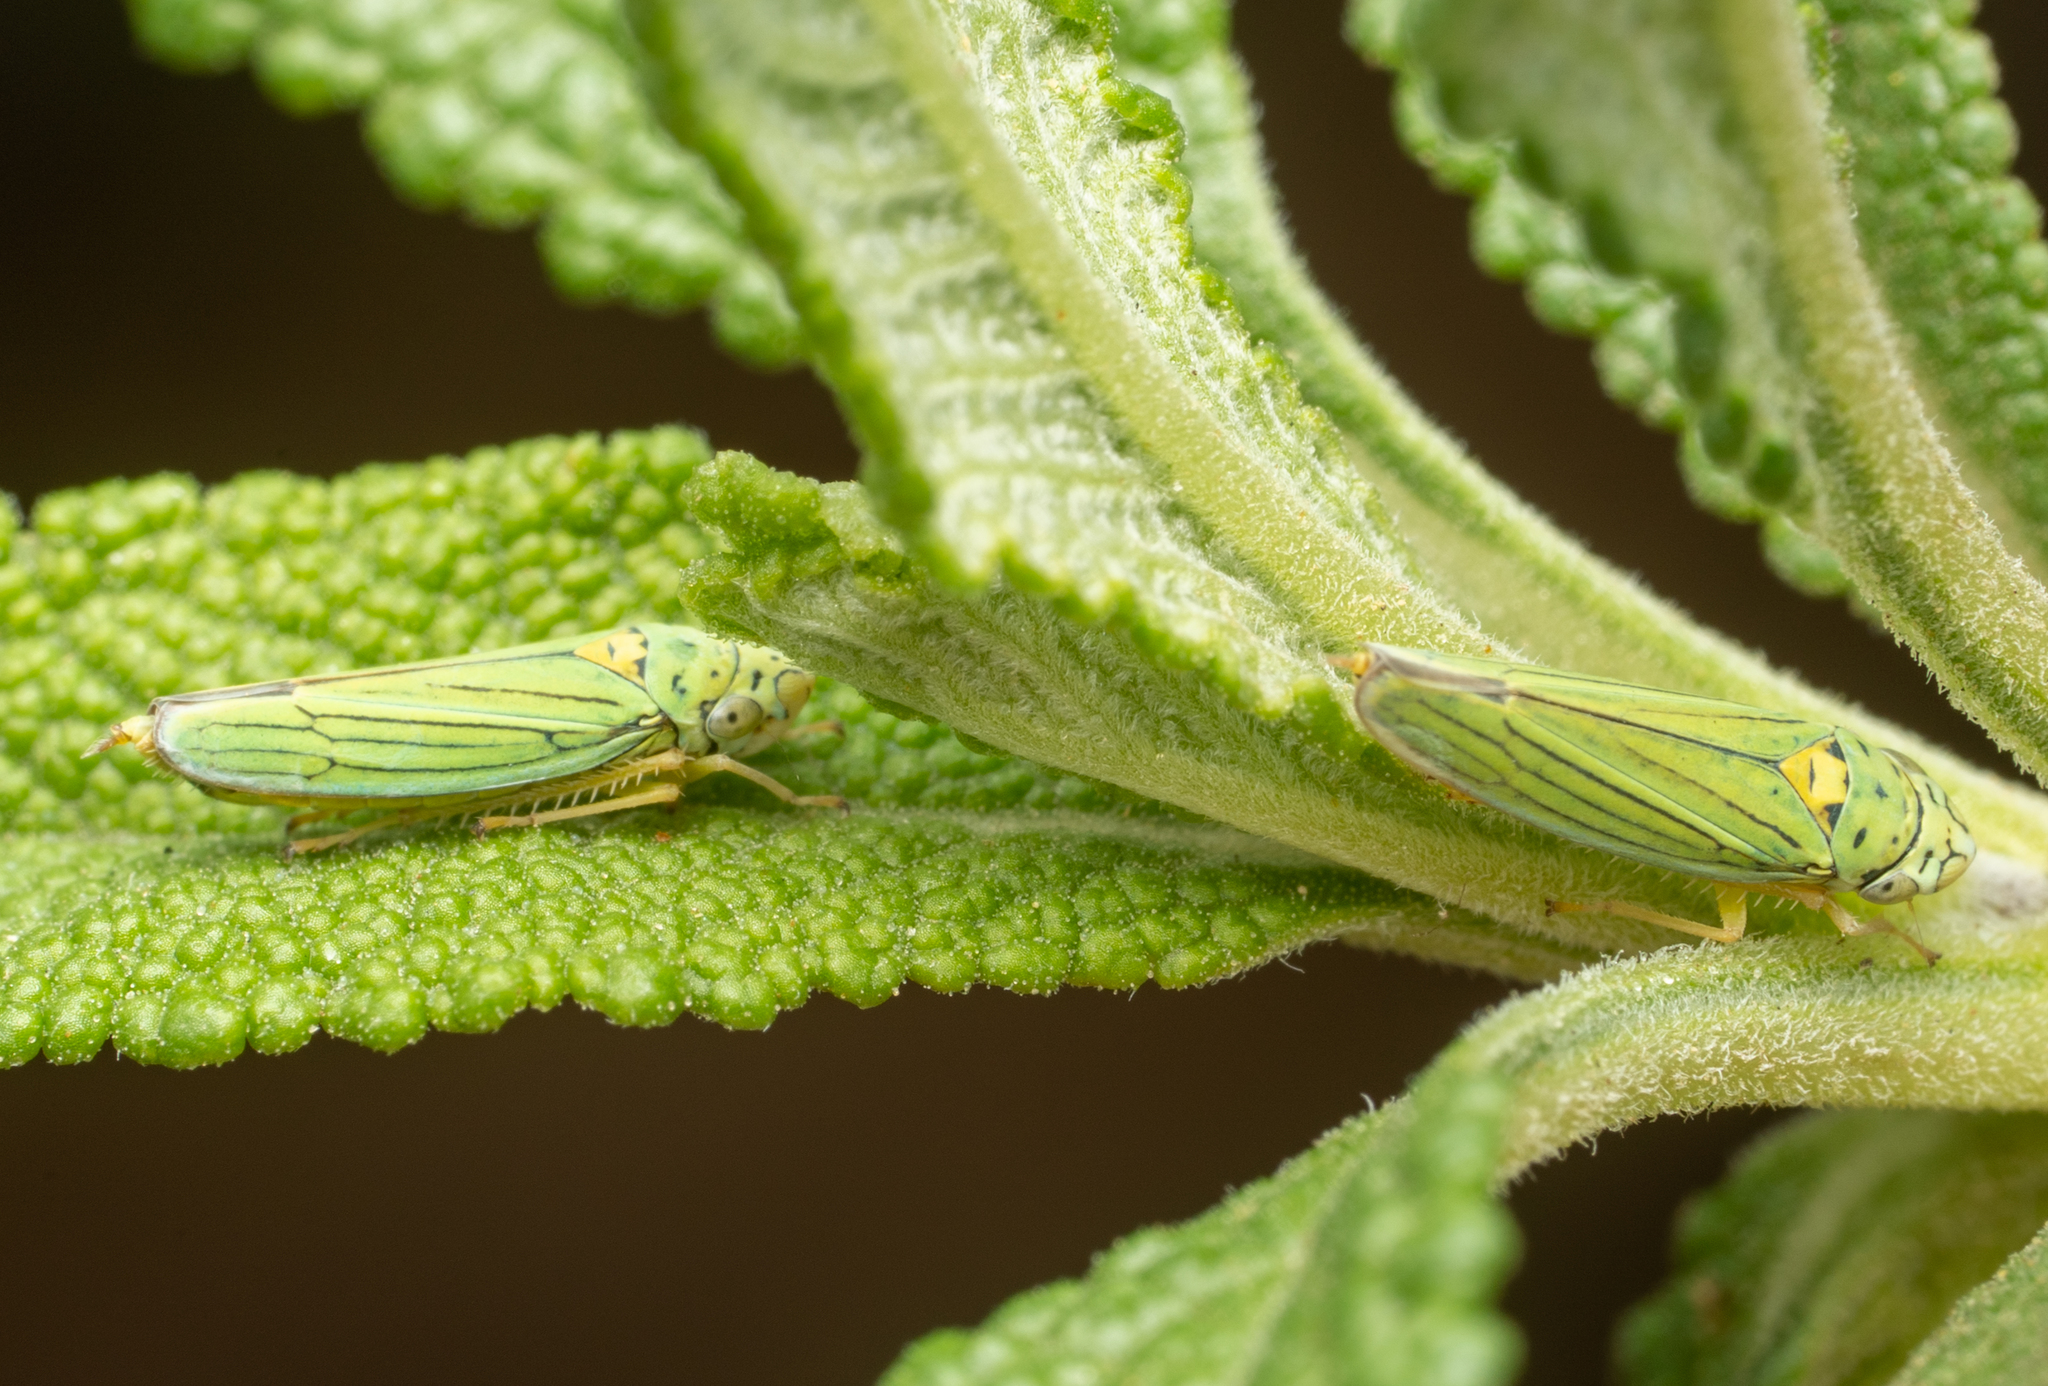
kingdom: Animalia
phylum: Arthropoda
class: Insecta
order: Hemiptera
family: Cicadellidae
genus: Graphocephala
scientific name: Graphocephala atropunctata
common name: Blue-green sharpshooter
